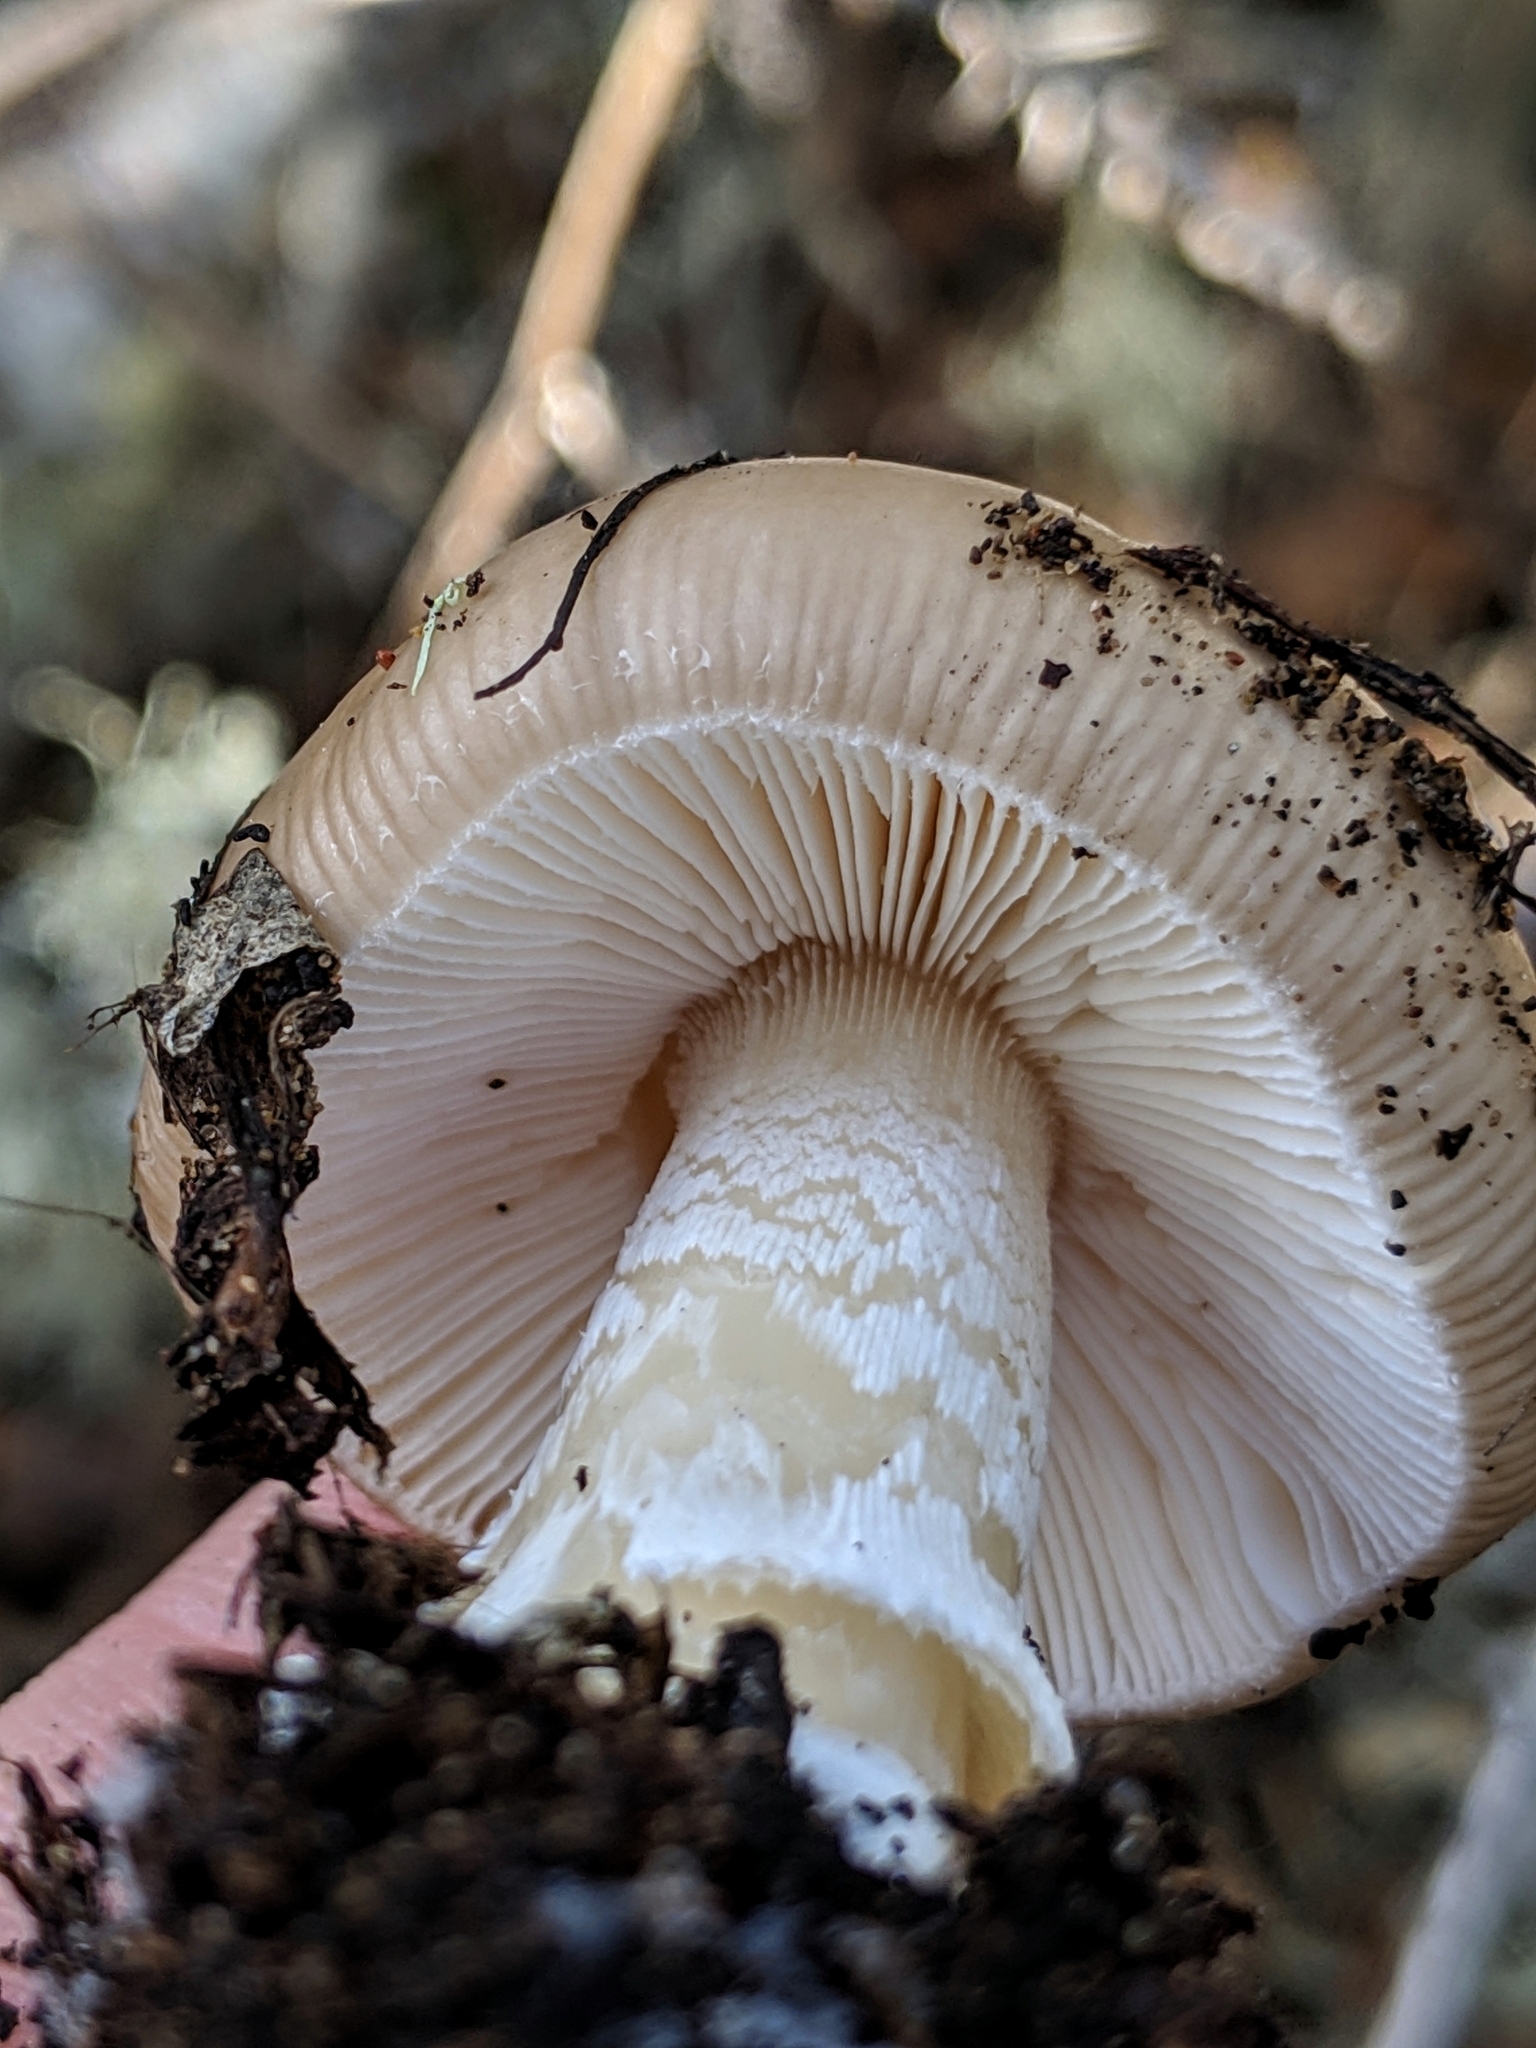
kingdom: Fungi
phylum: Basidiomycota
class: Agaricomycetes
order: Agaricales
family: Amanitaceae
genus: Amanita
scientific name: Amanita calyptratoides
